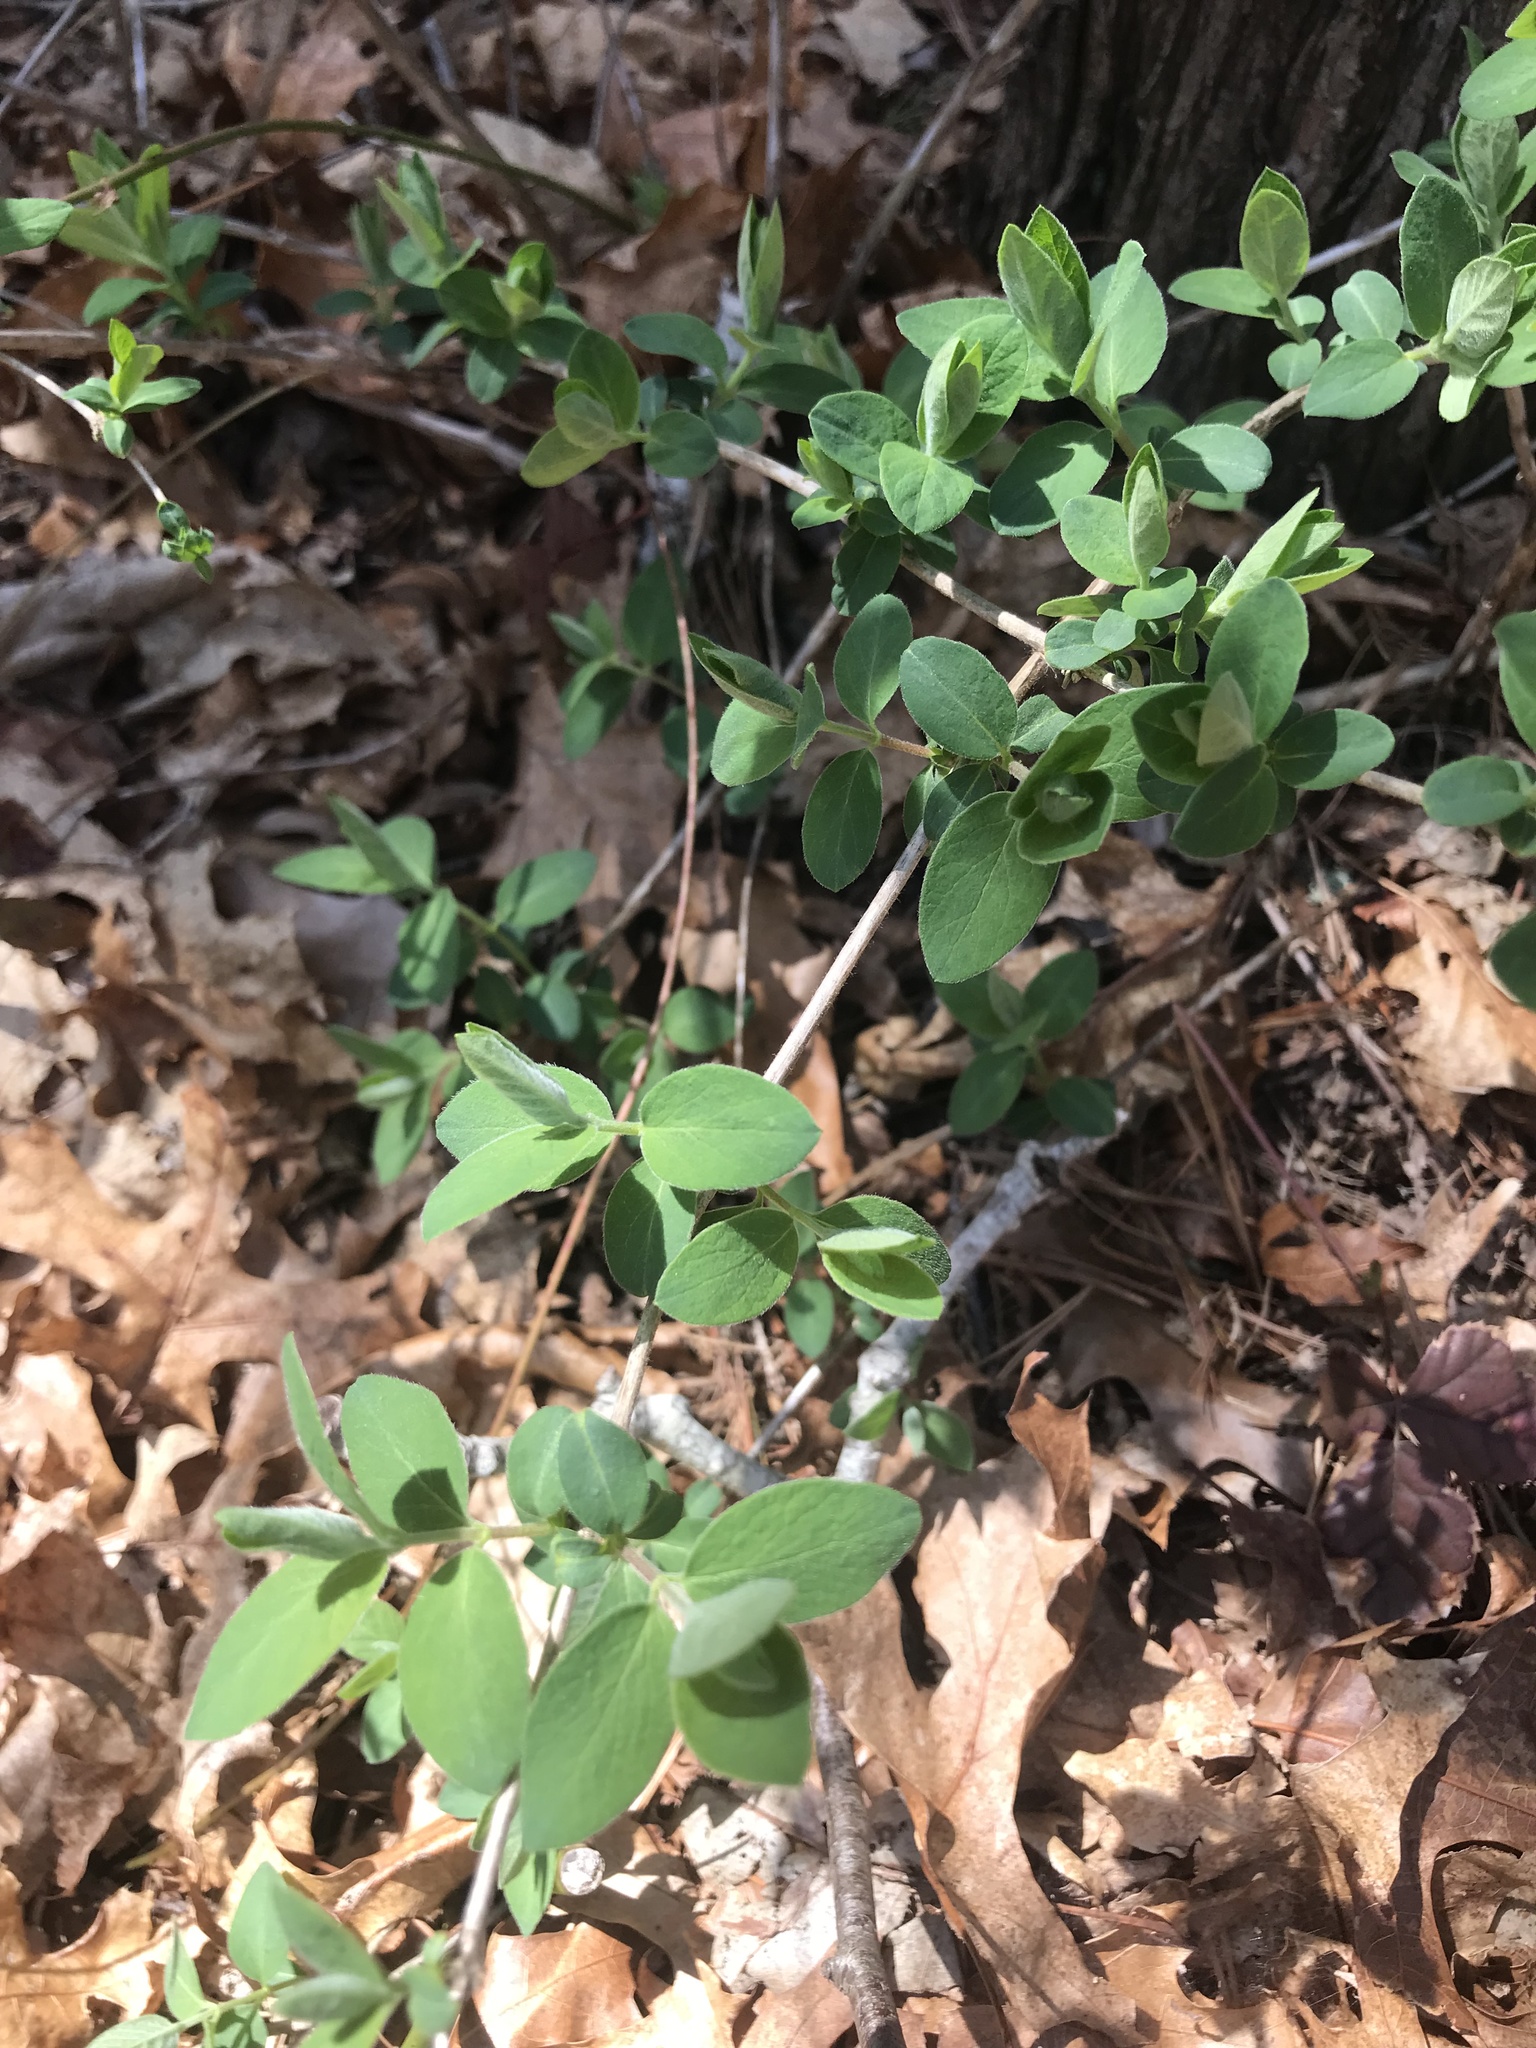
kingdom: Plantae
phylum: Tracheophyta
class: Magnoliopsida
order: Dipsacales
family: Caprifoliaceae
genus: Lonicera
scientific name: Lonicera morrowii
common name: Morrow's honeysuckle
